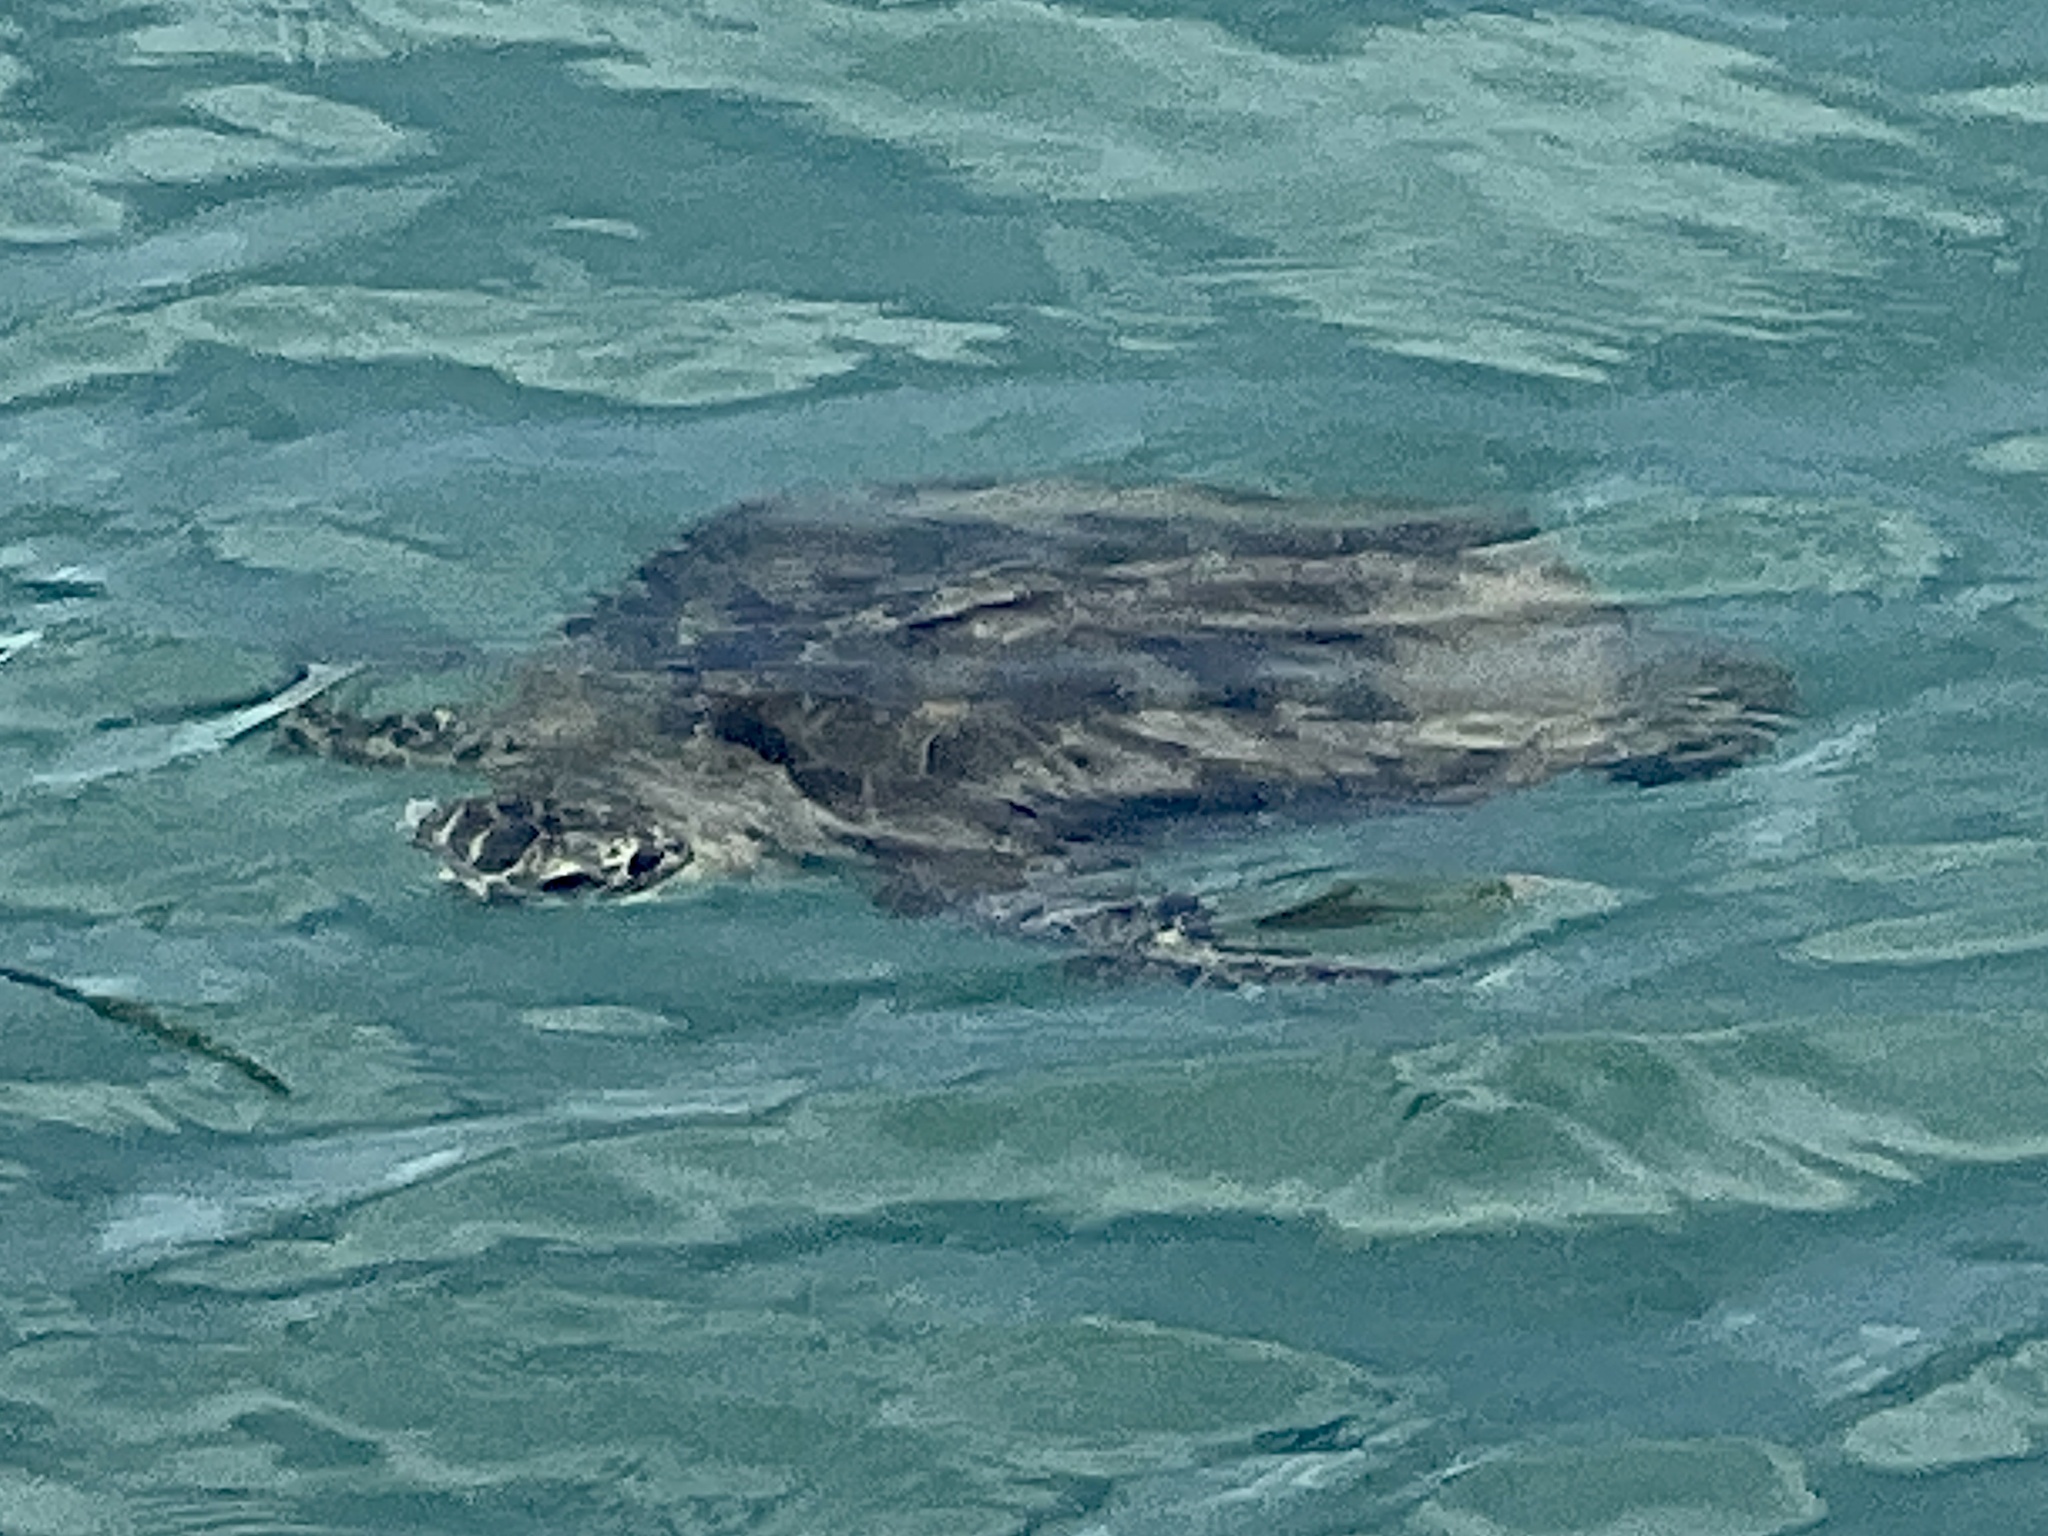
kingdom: Animalia
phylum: Chordata
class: Testudines
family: Cheloniidae
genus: Chelonia
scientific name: Chelonia mydas
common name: Green turtle
